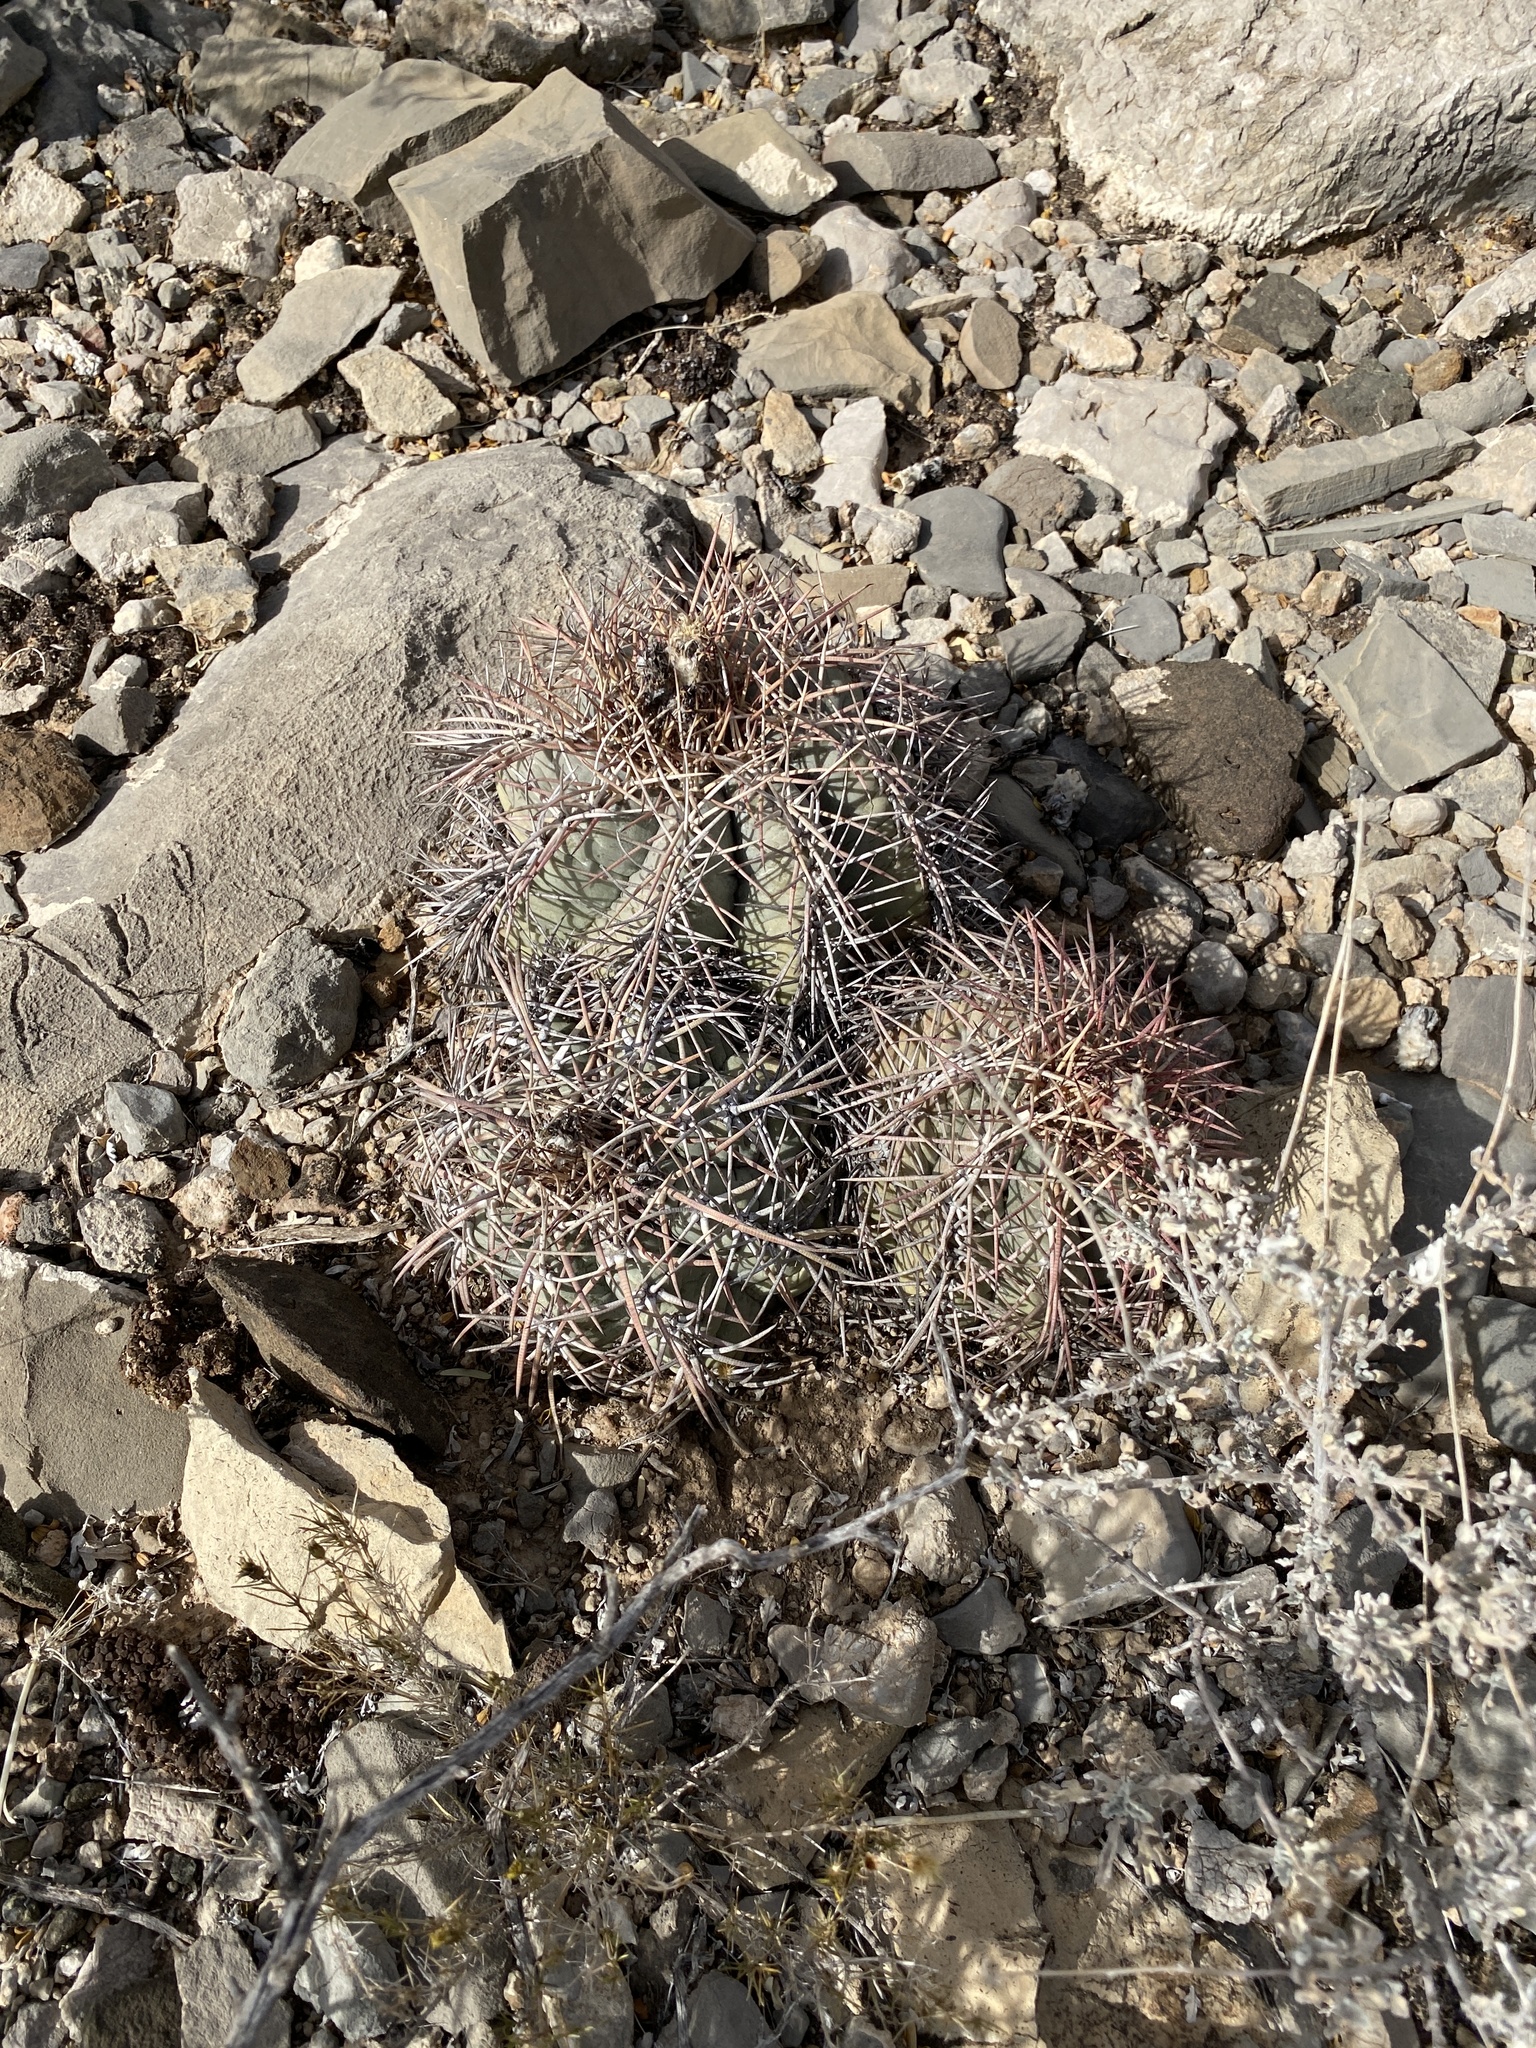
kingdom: Plantae
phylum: Tracheophyta
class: Magnoliopsida
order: Caryophyllales
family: Cactaceae
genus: Echinocactus
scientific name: Echinocactus horizonthalonius
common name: Devilshead
